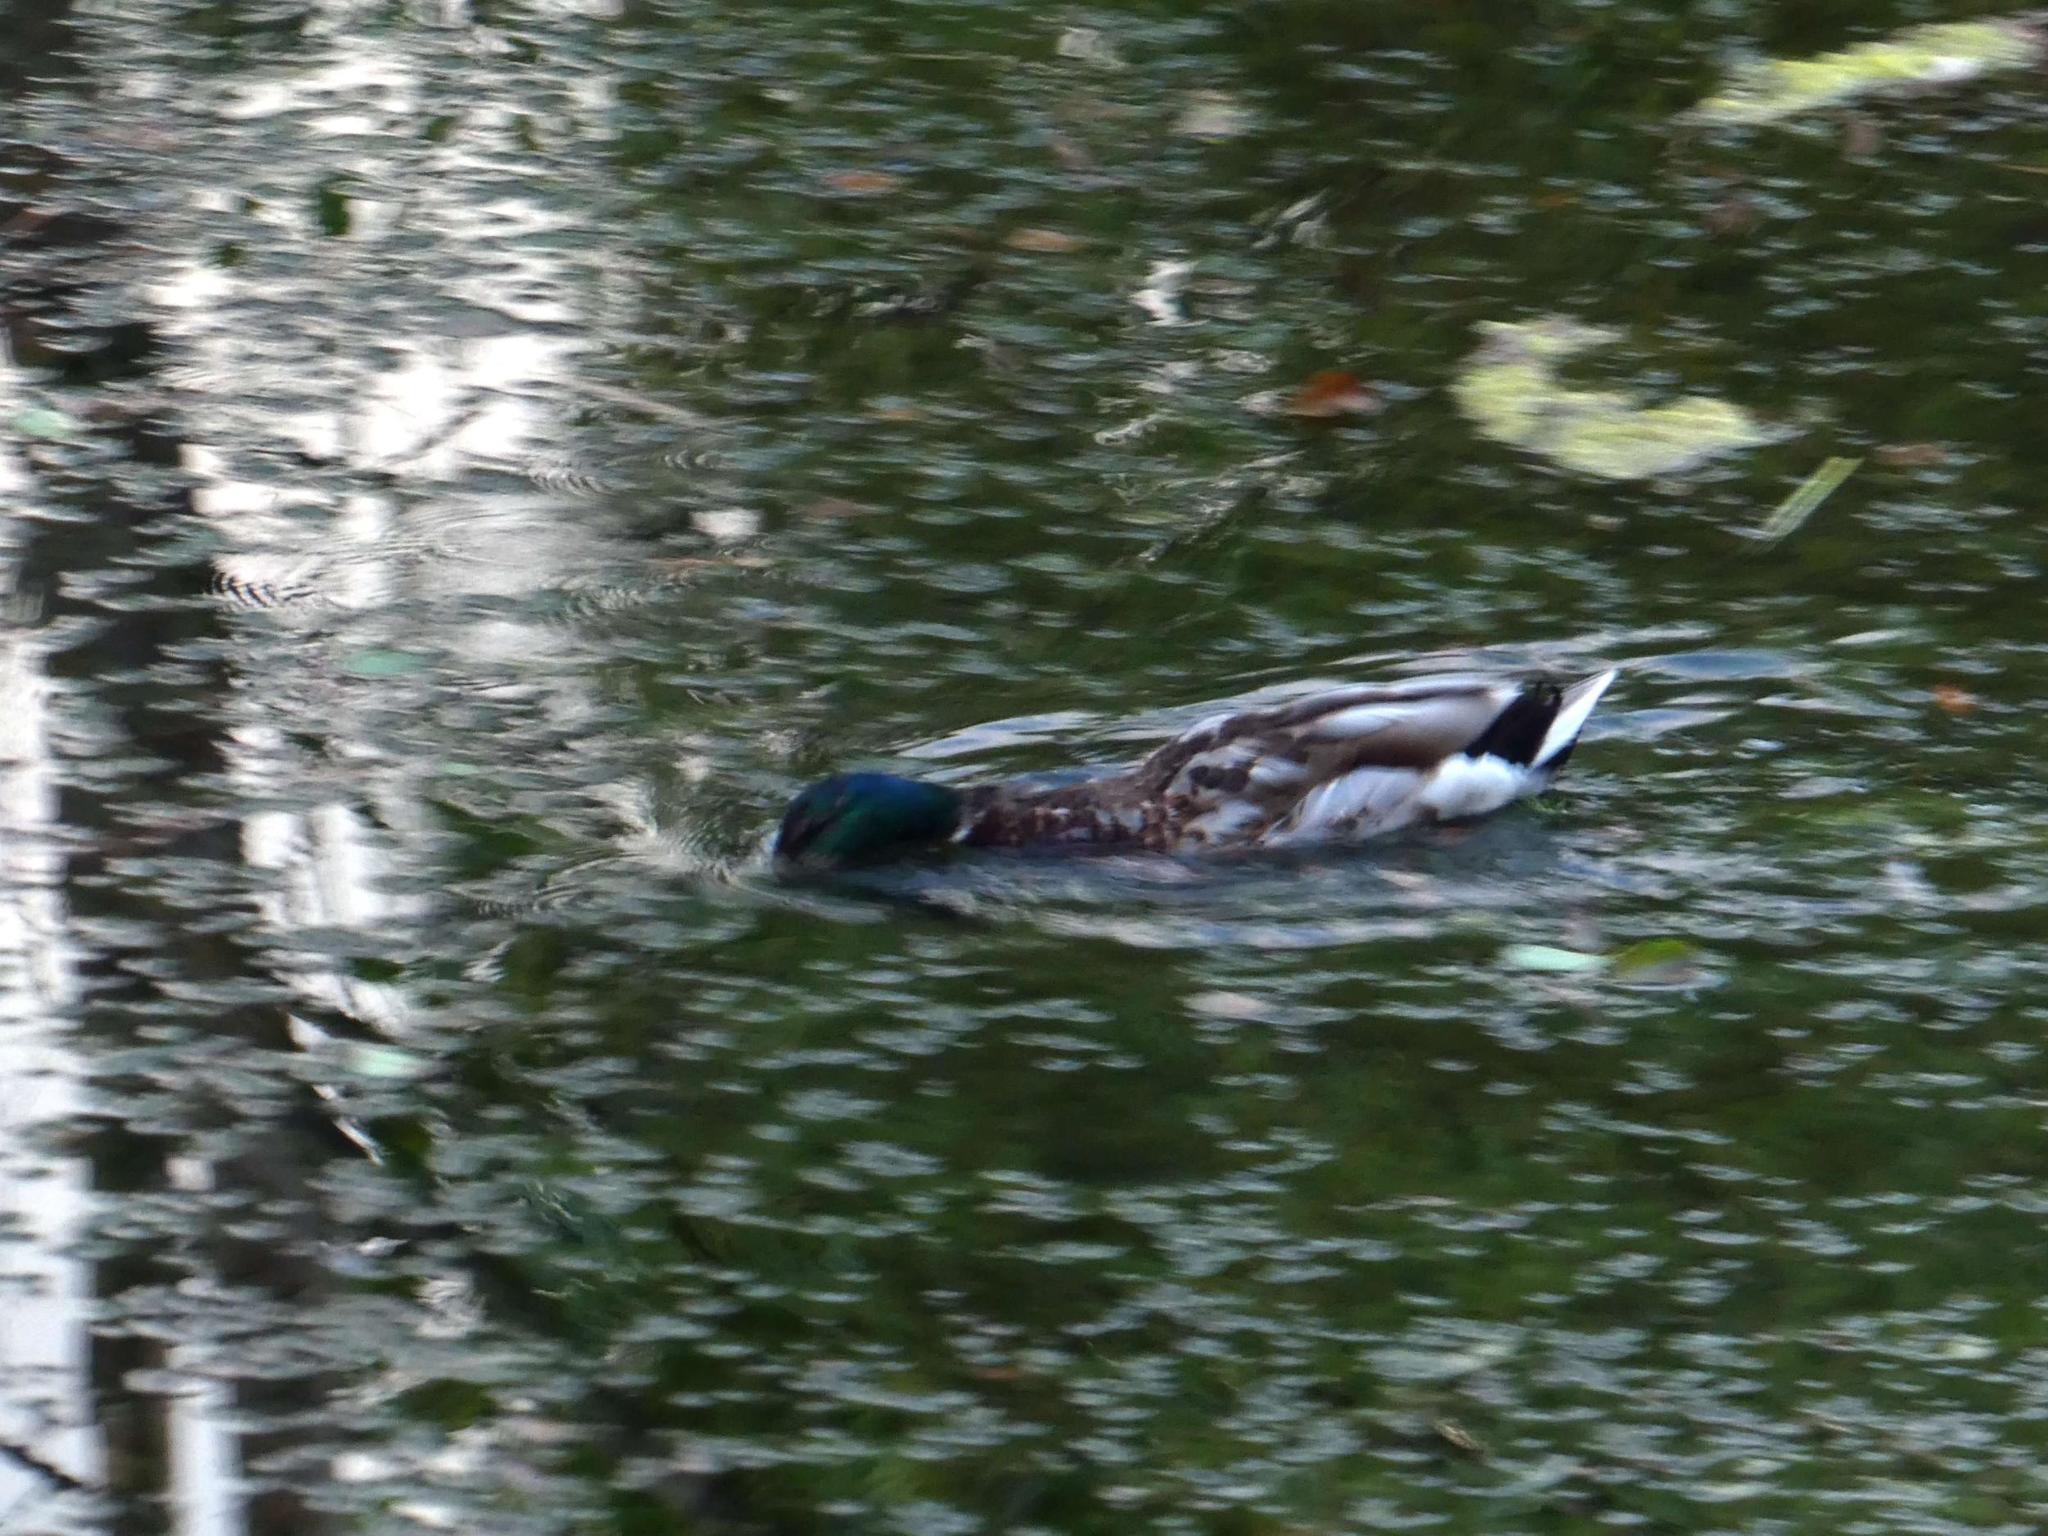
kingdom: Animalia
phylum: Chordata
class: Aves
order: Anseriformes
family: Anatidae
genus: Anas
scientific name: Anas platyrhynchos
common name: Mallard
